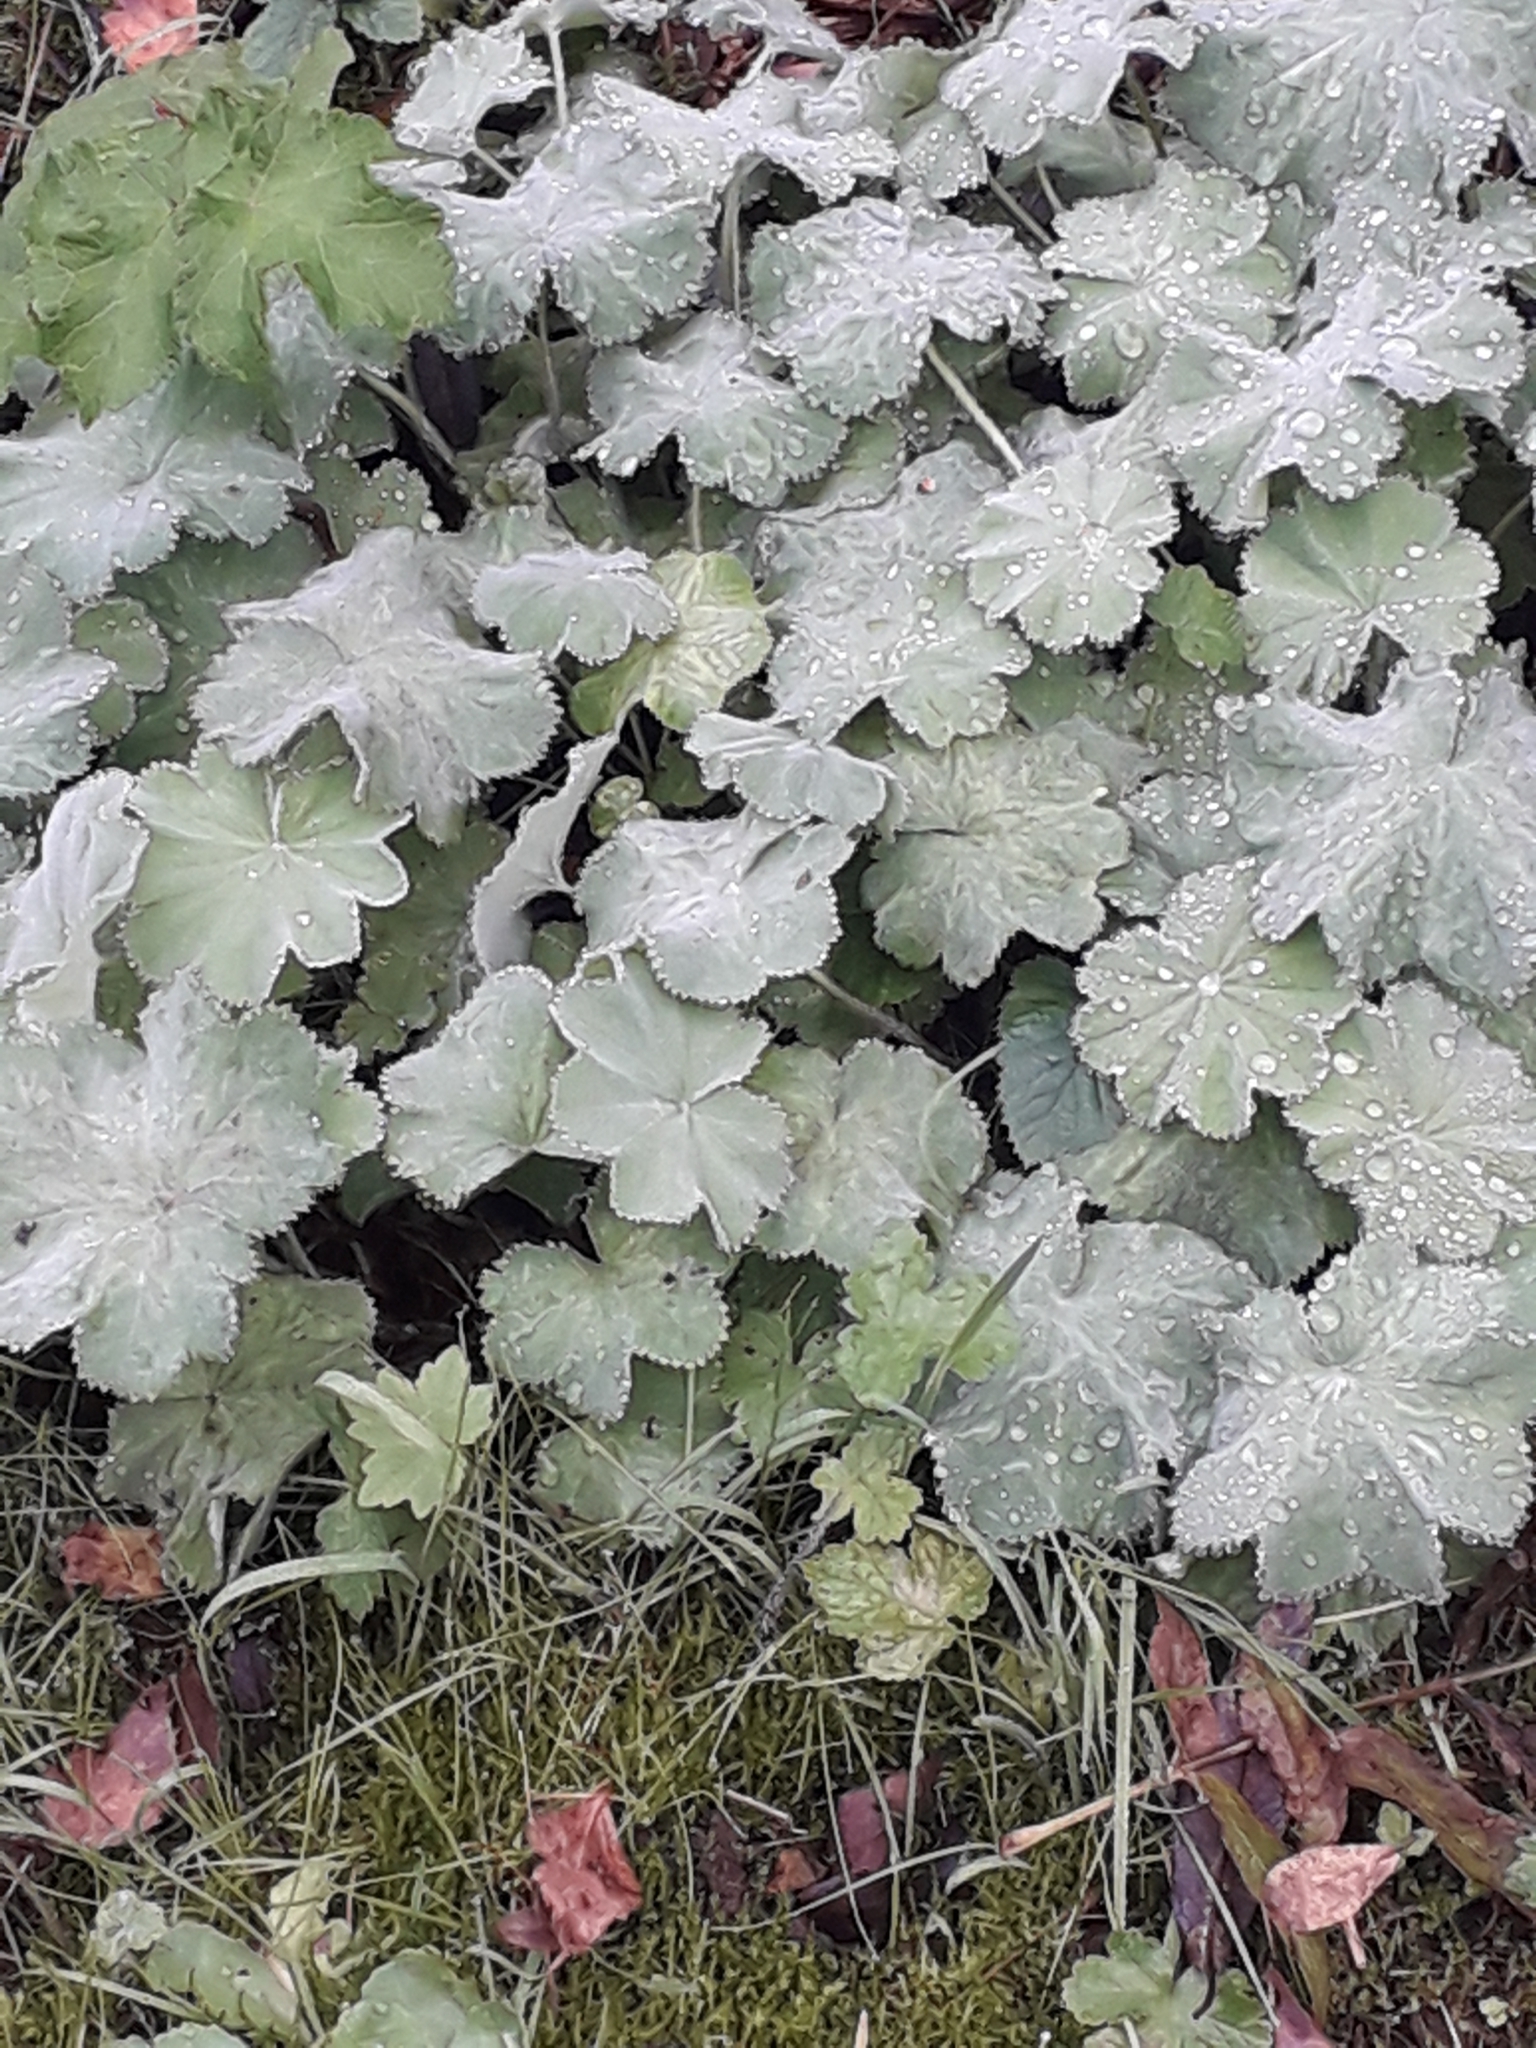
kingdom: Plantae
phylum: Tracheophyta
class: Magnoliopsida
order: Rosales
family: Rosaceae
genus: Alchemilla
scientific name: Alchemilla mollis
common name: Lady's-mantle
